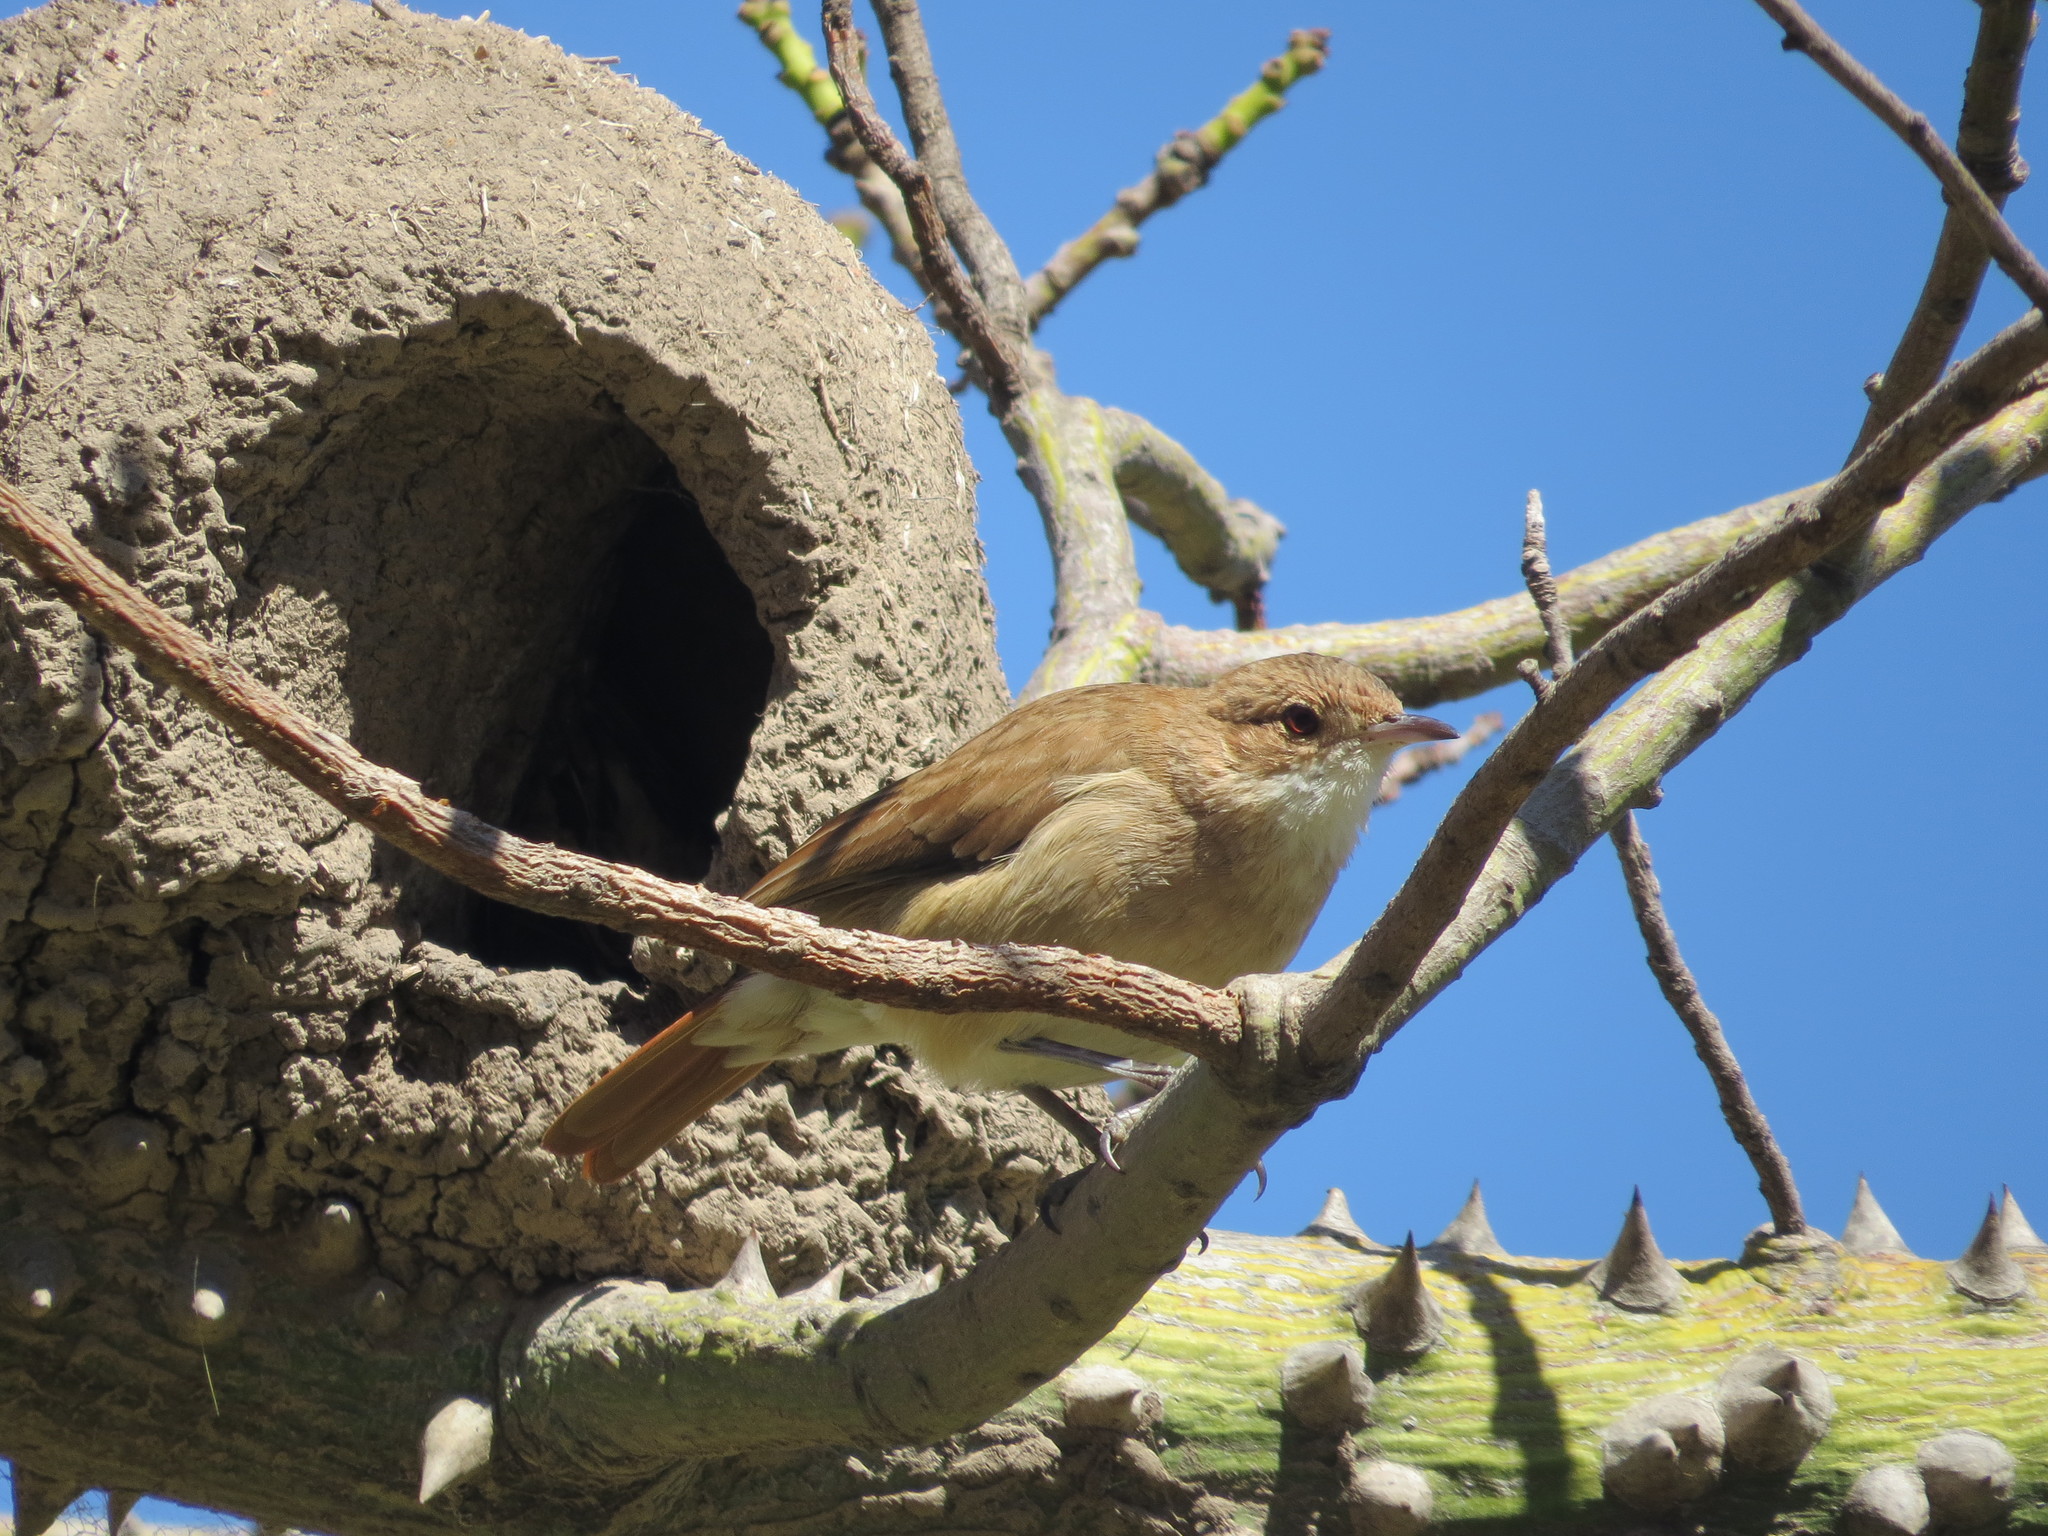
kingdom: Animalia
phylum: Chordata
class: Aves
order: Passeriformes
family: Furnariidae
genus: Furnarius
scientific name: Furnarius rufus
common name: Rufous hornero
